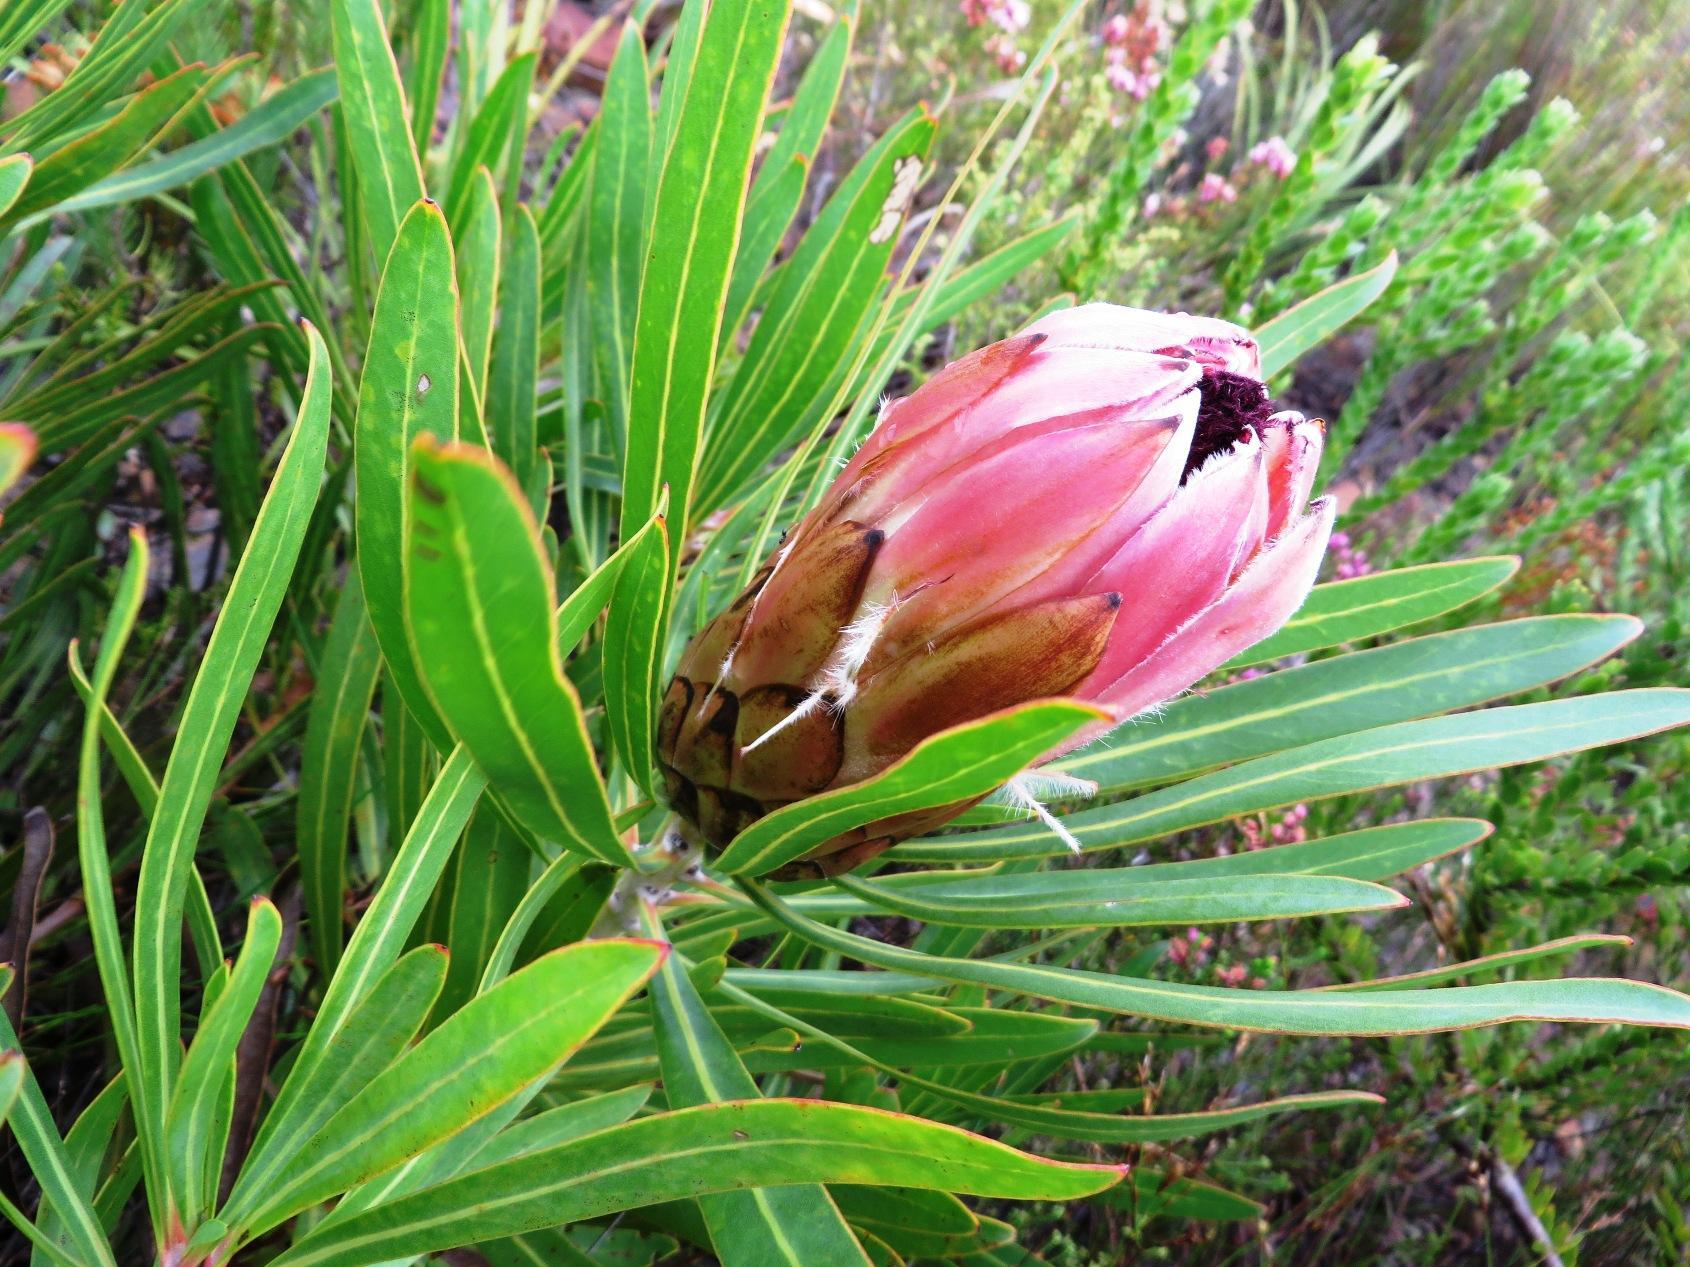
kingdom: Plantae
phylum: Tracheophyta
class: Magnoliopsida
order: Proteales
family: Proteaceae
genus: Protea
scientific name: Protea
